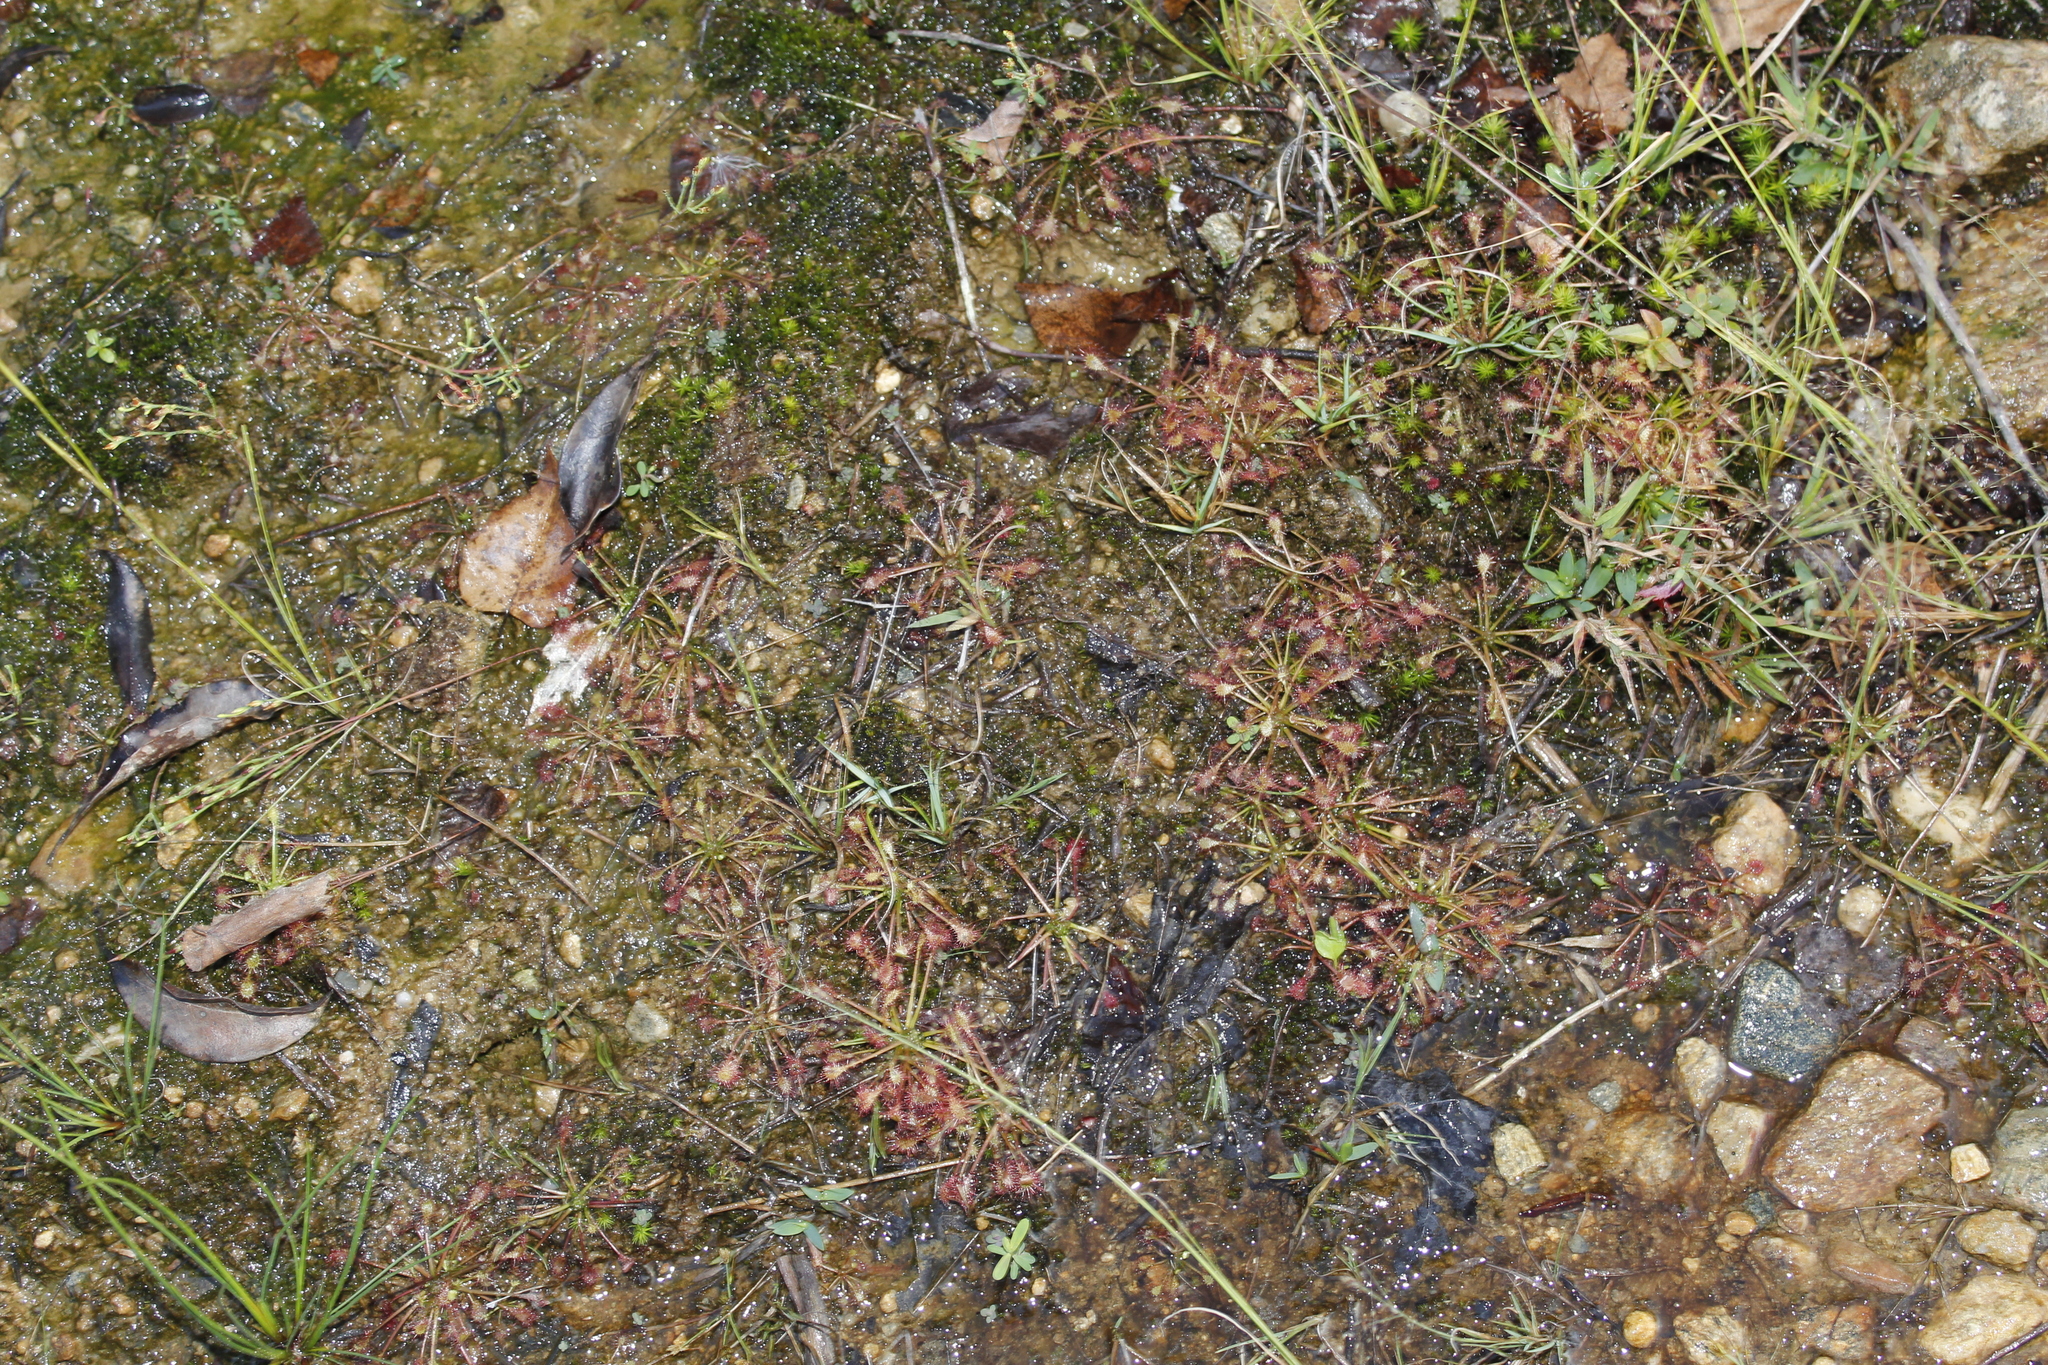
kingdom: Plantae
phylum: Tracheophyta
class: Magnoliopsida
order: Caryophyllales
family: Droseraceae
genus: Drosera
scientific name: Drosera intermedia
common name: Oblong-leaved sundew
